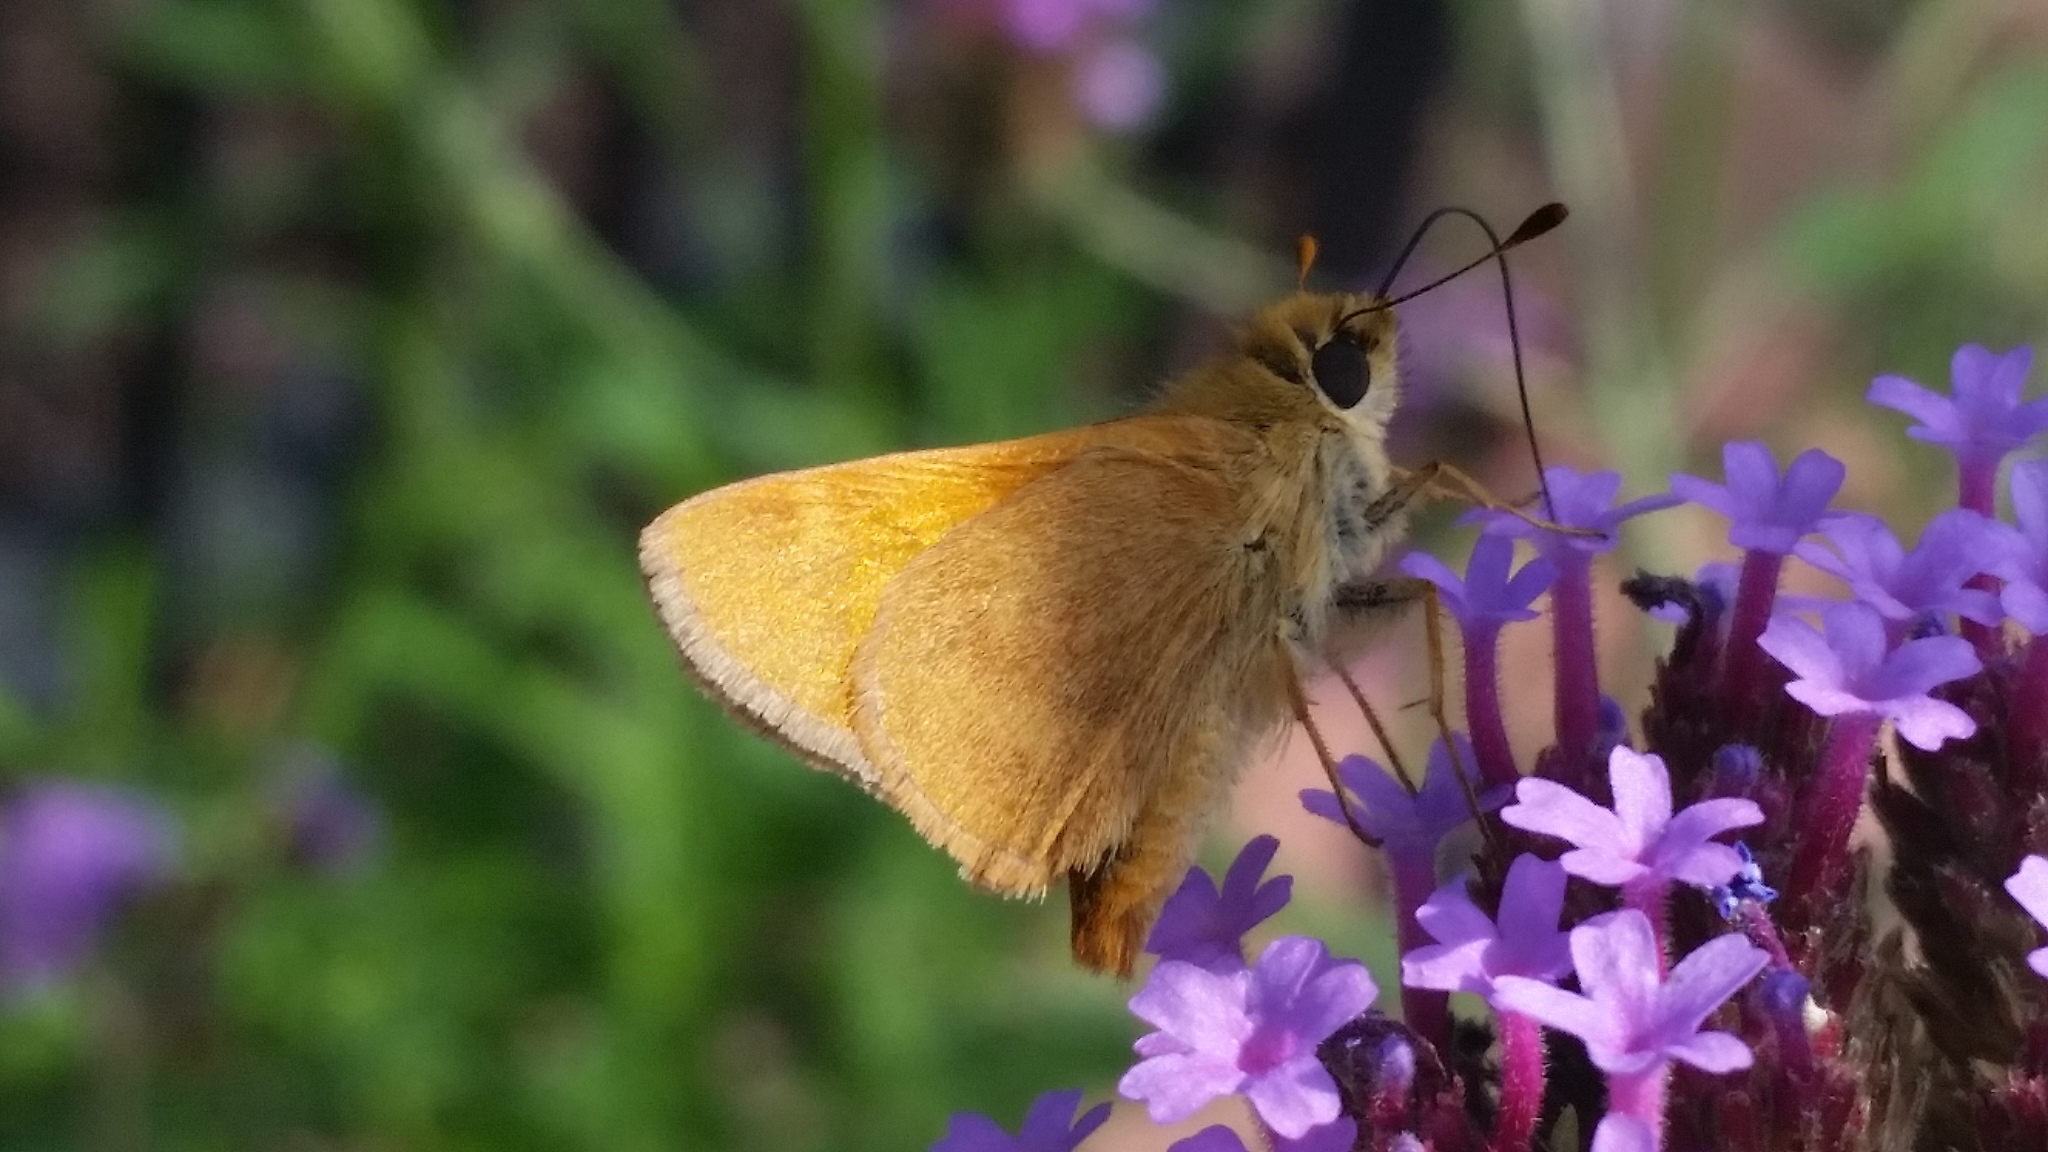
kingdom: Animalia
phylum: Arthropoda
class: Insecta
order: Lepidoptera
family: Hesperiidae
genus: Ochlodes
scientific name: Ochlodes sylvanoides
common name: Woodland skipper
